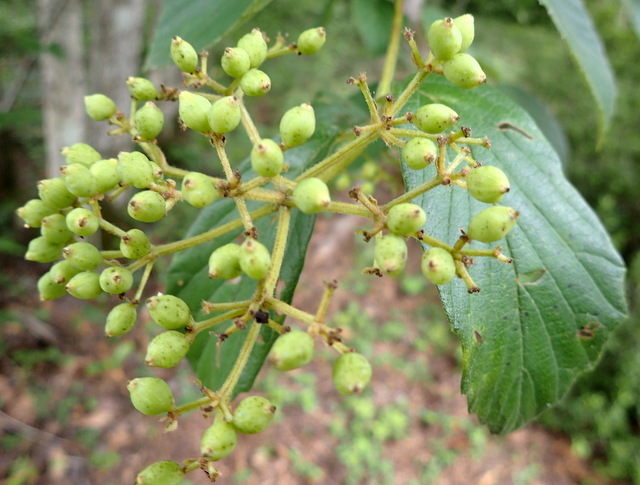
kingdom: Plantae
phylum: Tracheophyta
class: Magnoliopsida
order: Dipsacales
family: Viburnaceae
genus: Viburnum
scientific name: Viburnum scabrellum
